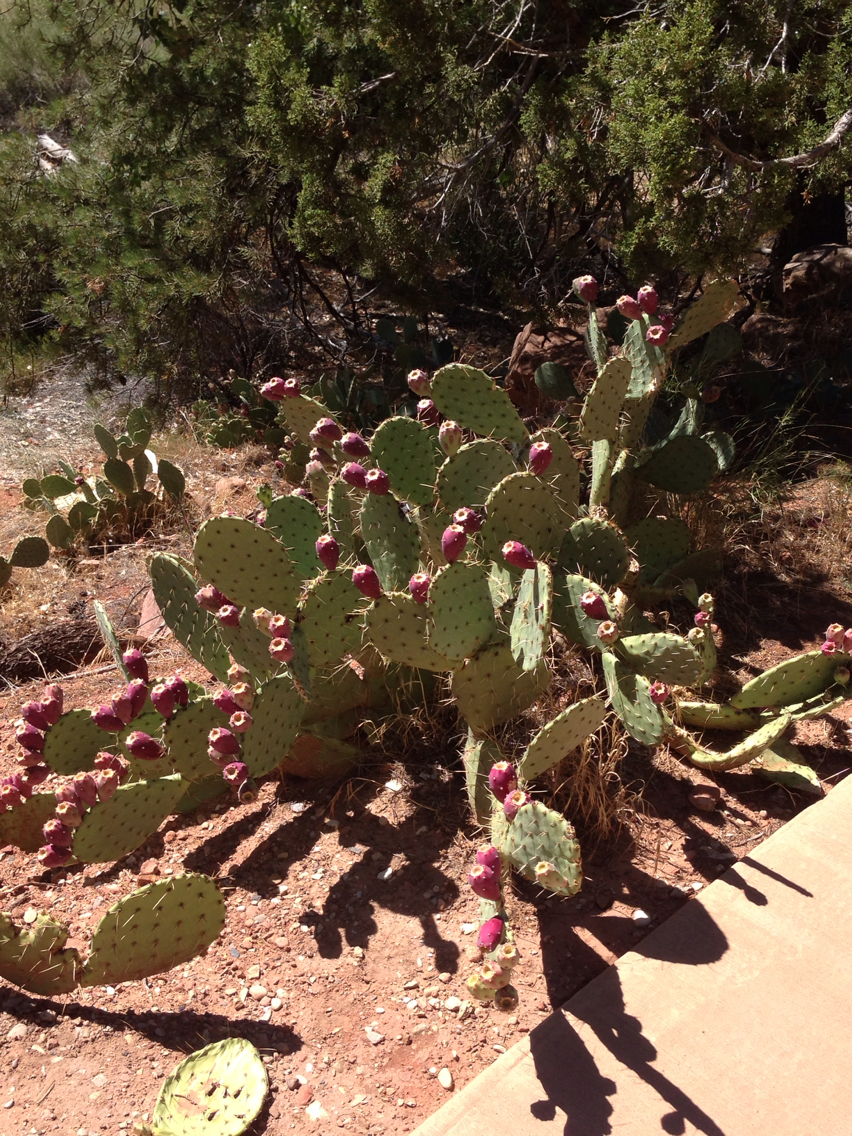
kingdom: Plantae
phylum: Tracheophyta
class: Magnoliopsida
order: Caryophyllales
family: Cactaceae
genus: Opuntia
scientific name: Opuntia engelmannii
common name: Cactus-apple
